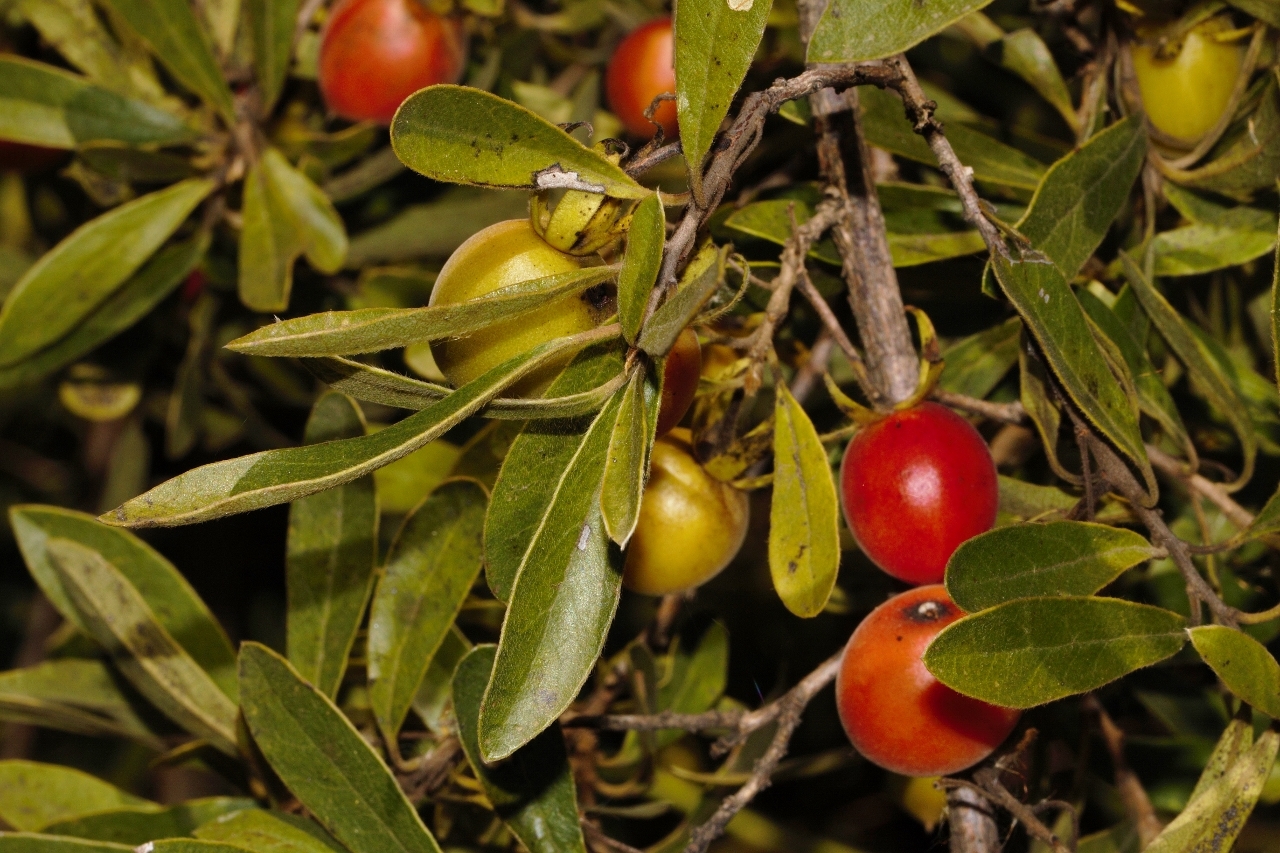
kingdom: Plantae
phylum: Tracheophyta
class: Magnoliopsida
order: Ericales
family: Ebenaceae
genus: Diospyros
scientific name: Diospyros lycioides
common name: Red star apple
